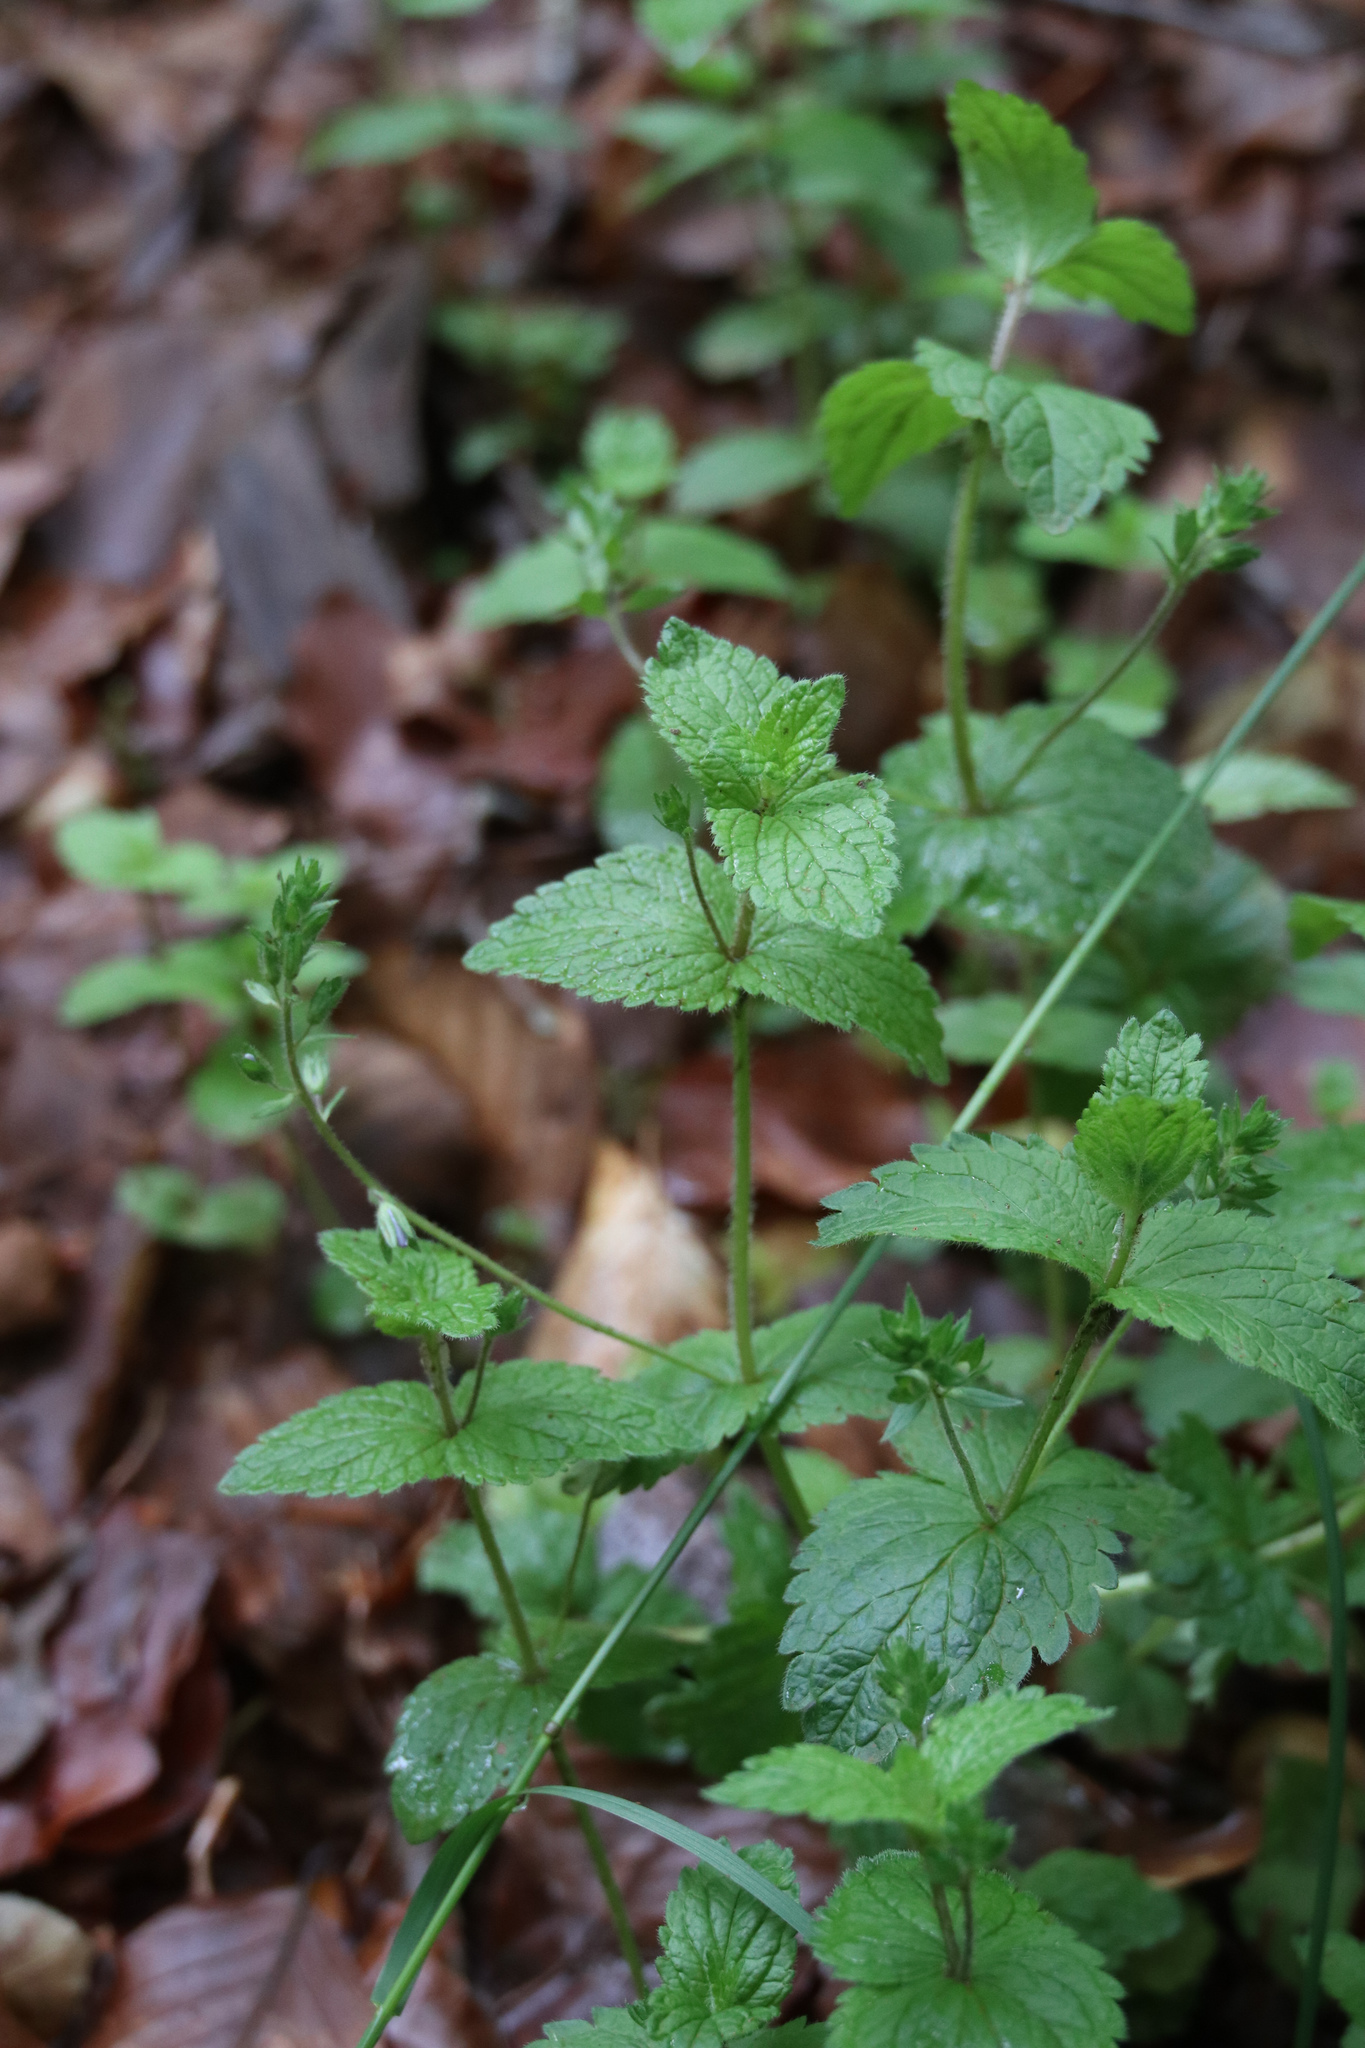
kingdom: Plantae
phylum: Tracheophyta
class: Magnoliopsida
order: Lamiales
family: Plantaginaceae
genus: Veronica
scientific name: Veronica chamaedrys
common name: Germander speedwell
